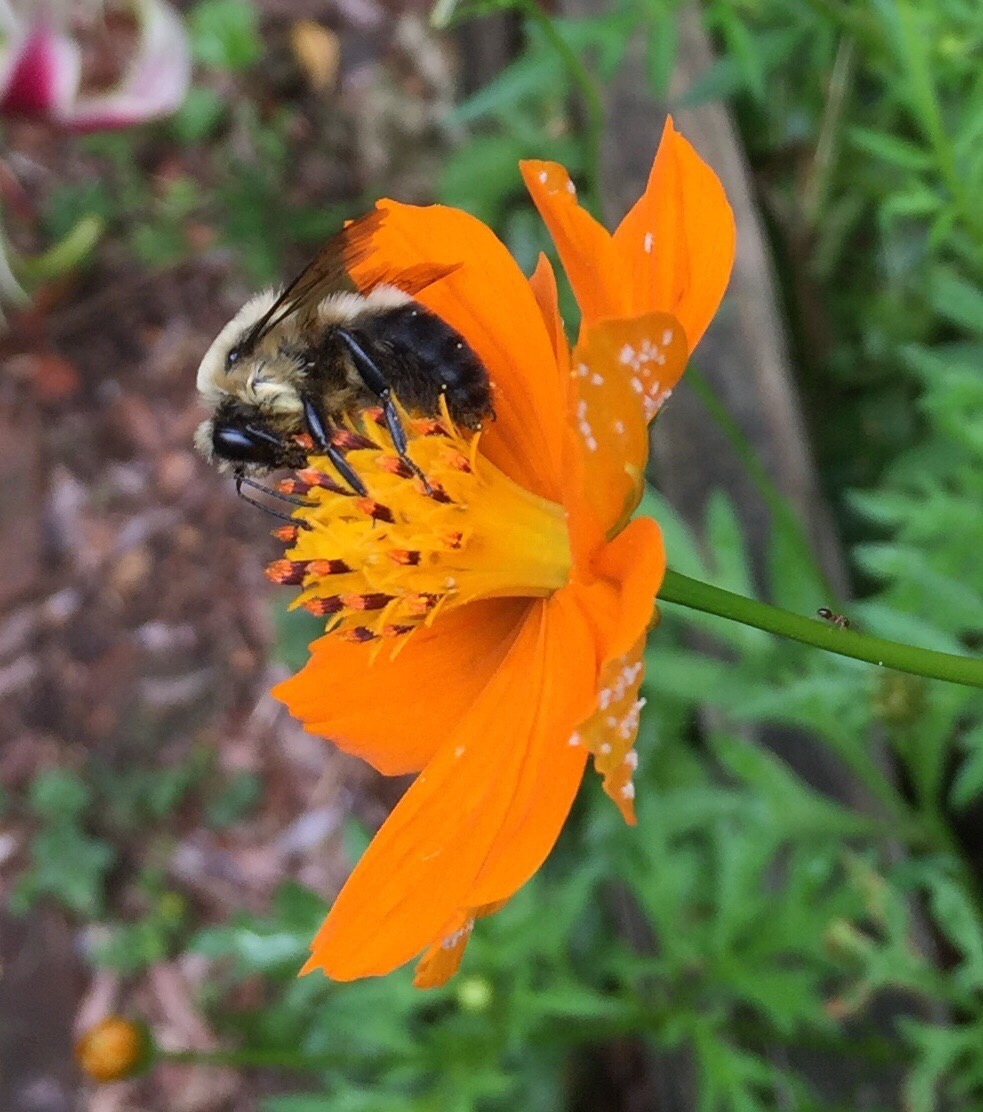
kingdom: Animalia
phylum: Arthropoda
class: Insecta
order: Hymenoptera
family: Apidae
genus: Bombus
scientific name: Bombus griseocollis
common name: Brown-belted bumble bee
